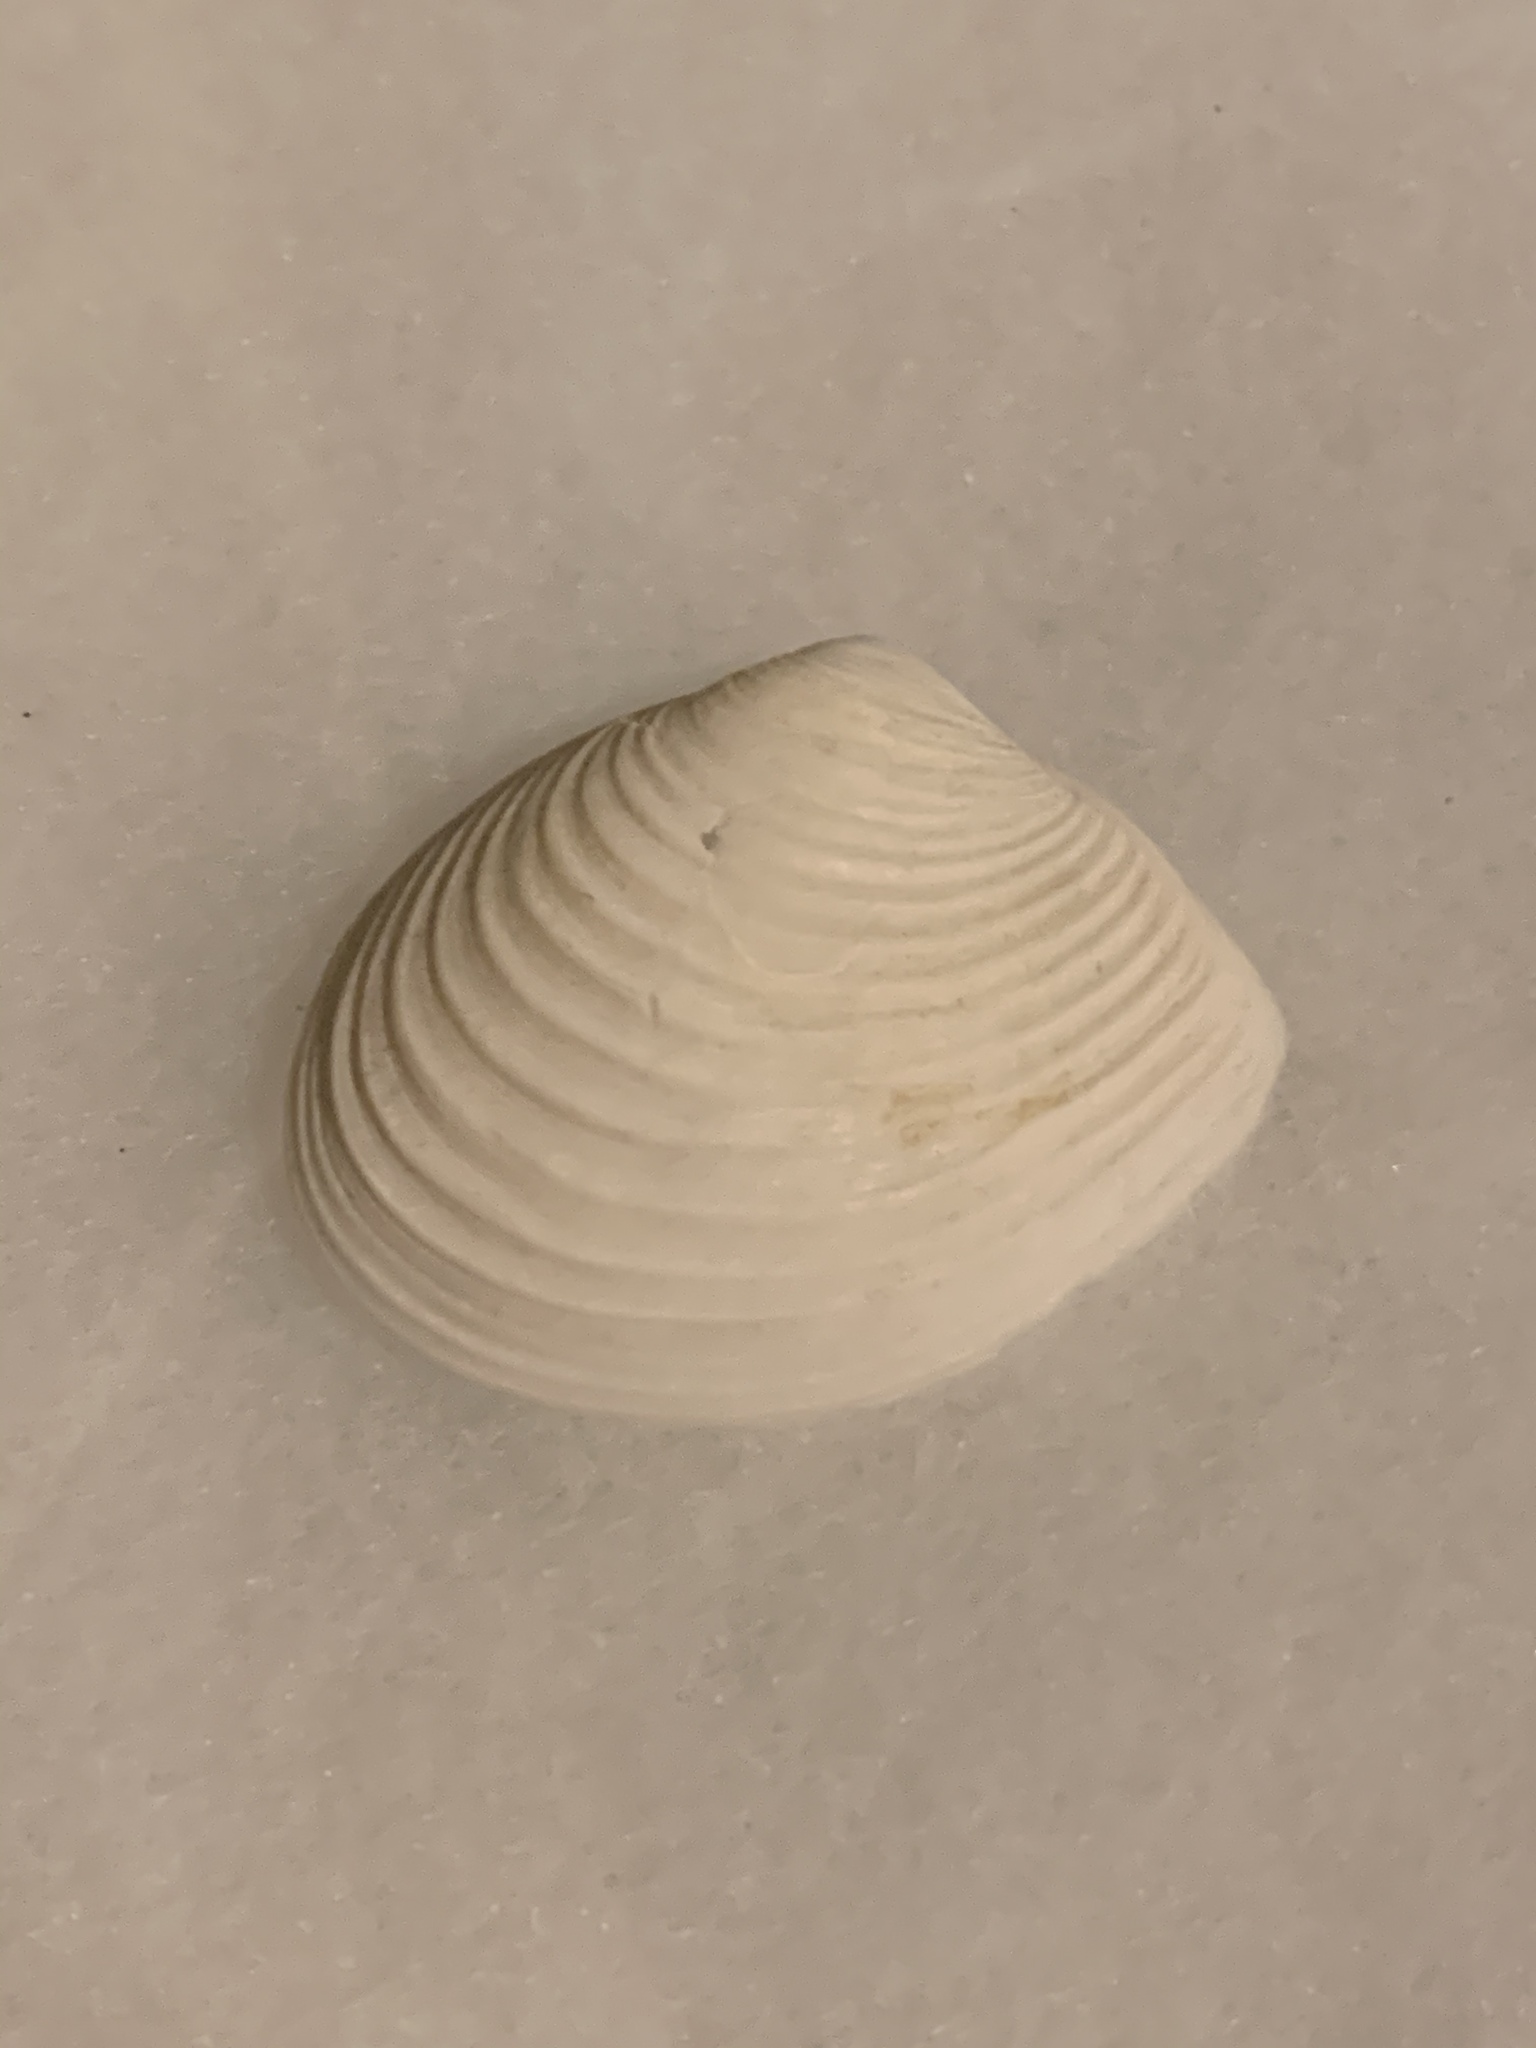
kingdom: Animalia
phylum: Mollusca
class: Bivalvia
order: Venerida
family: Anatinellidae
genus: Raeta
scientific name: Raeta plicatella
